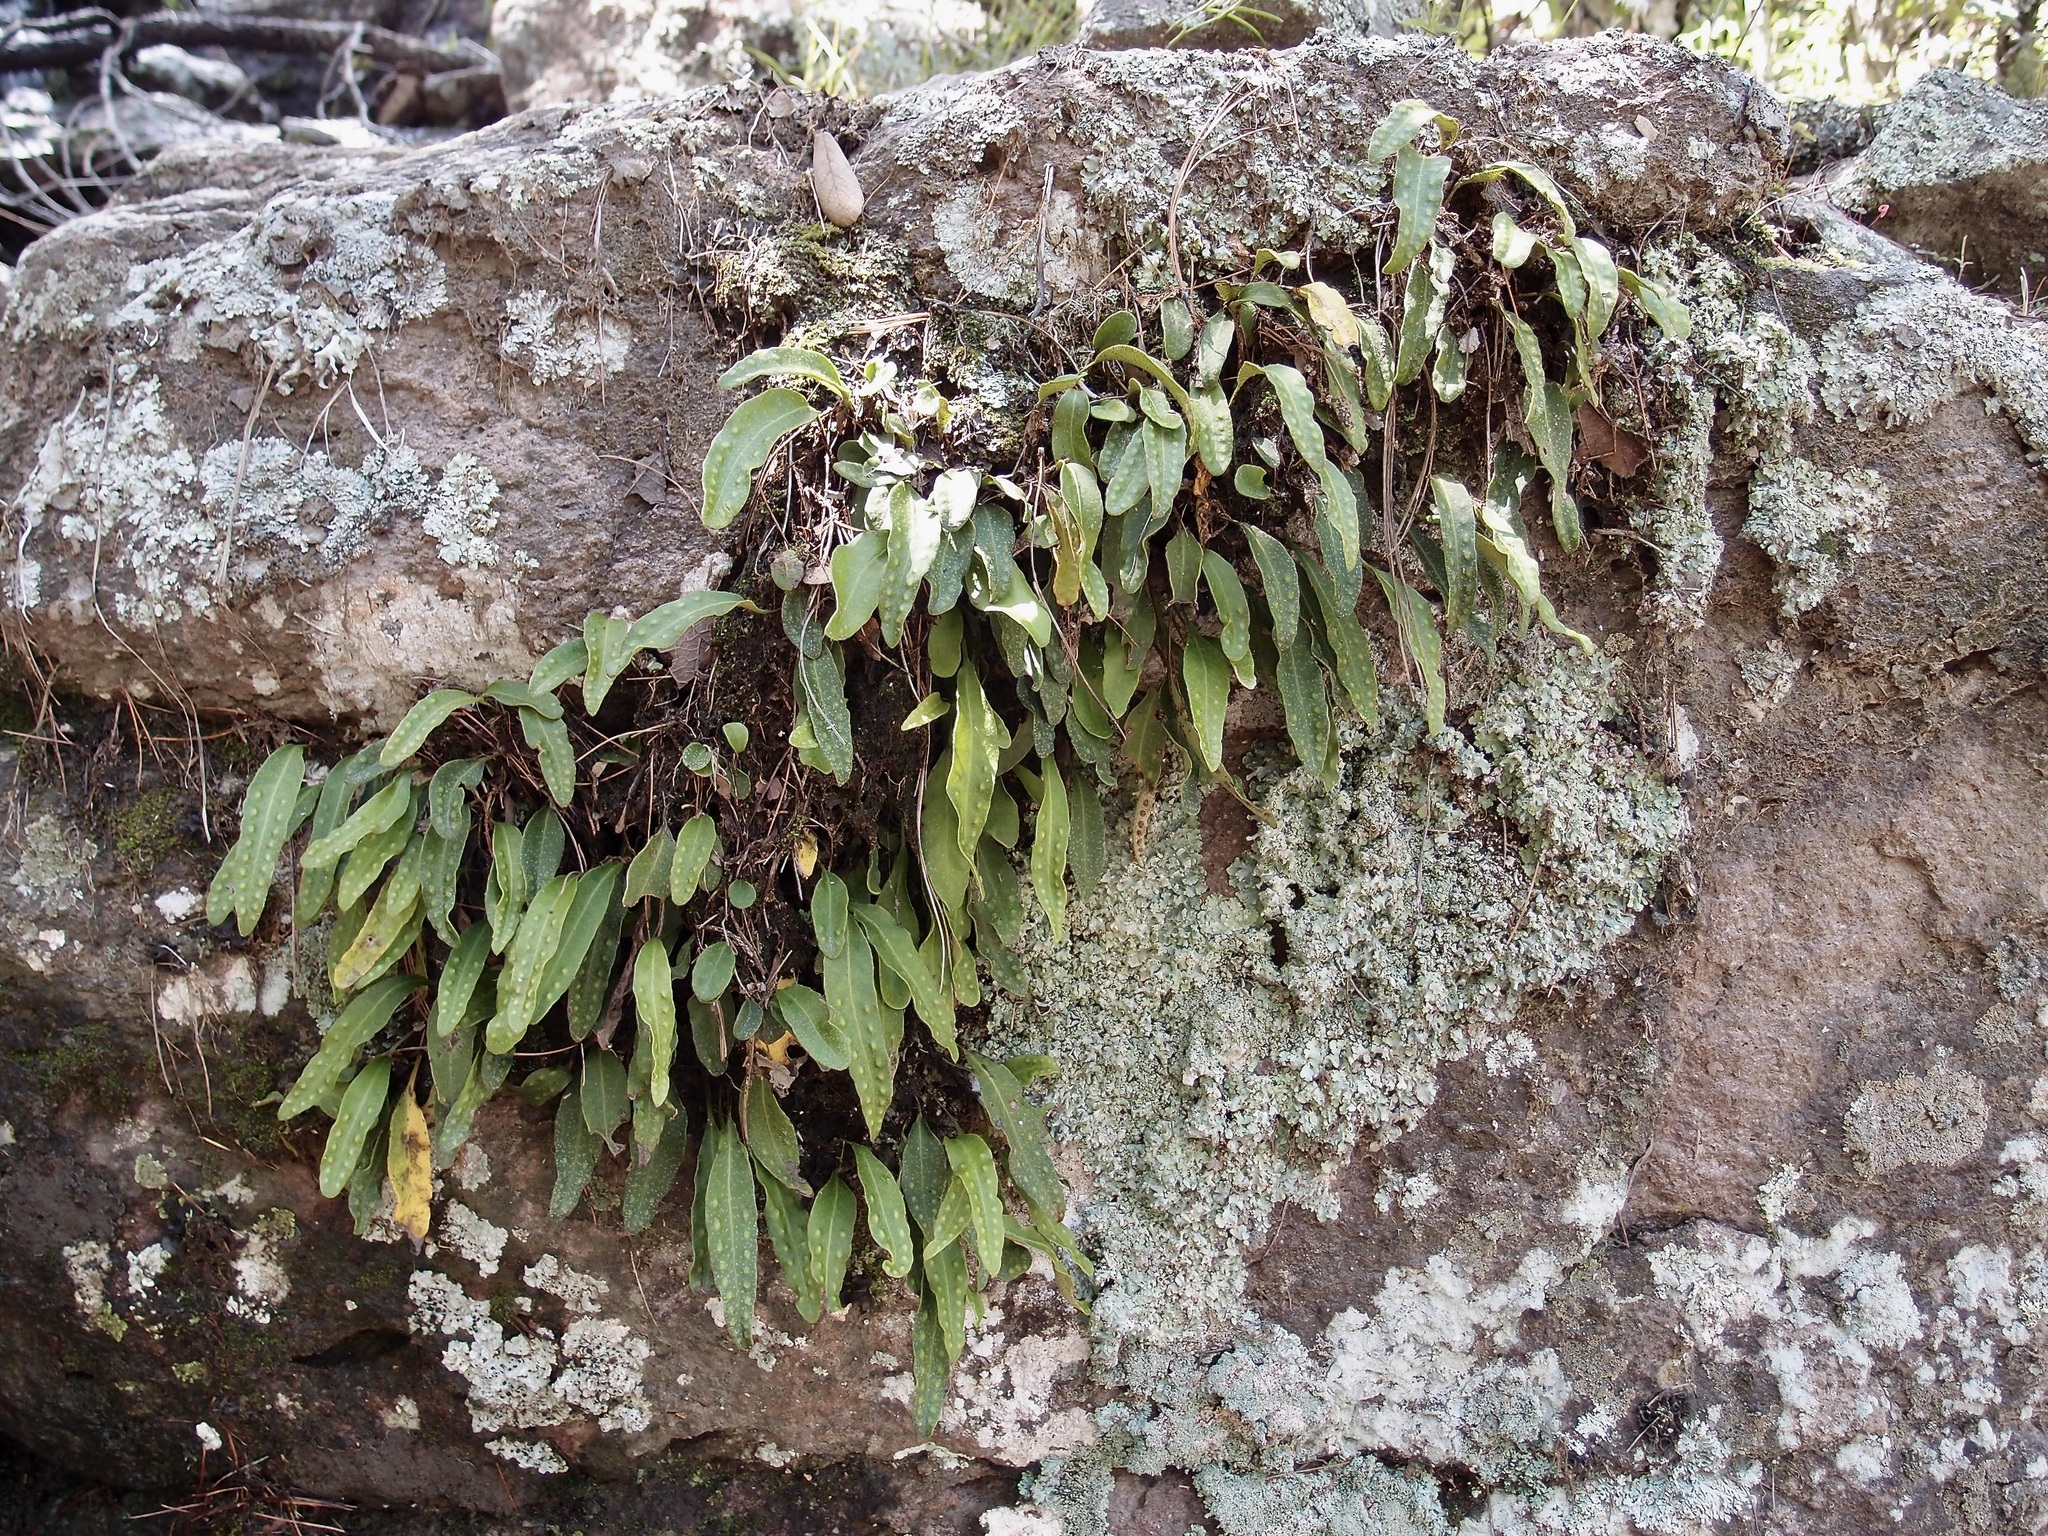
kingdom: Plantae
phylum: Tracheophyta
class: Polypodiopsida
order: Polypodiales
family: Polypodiaceae
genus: Pleopeltis
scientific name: Pleopeltis polylepis
